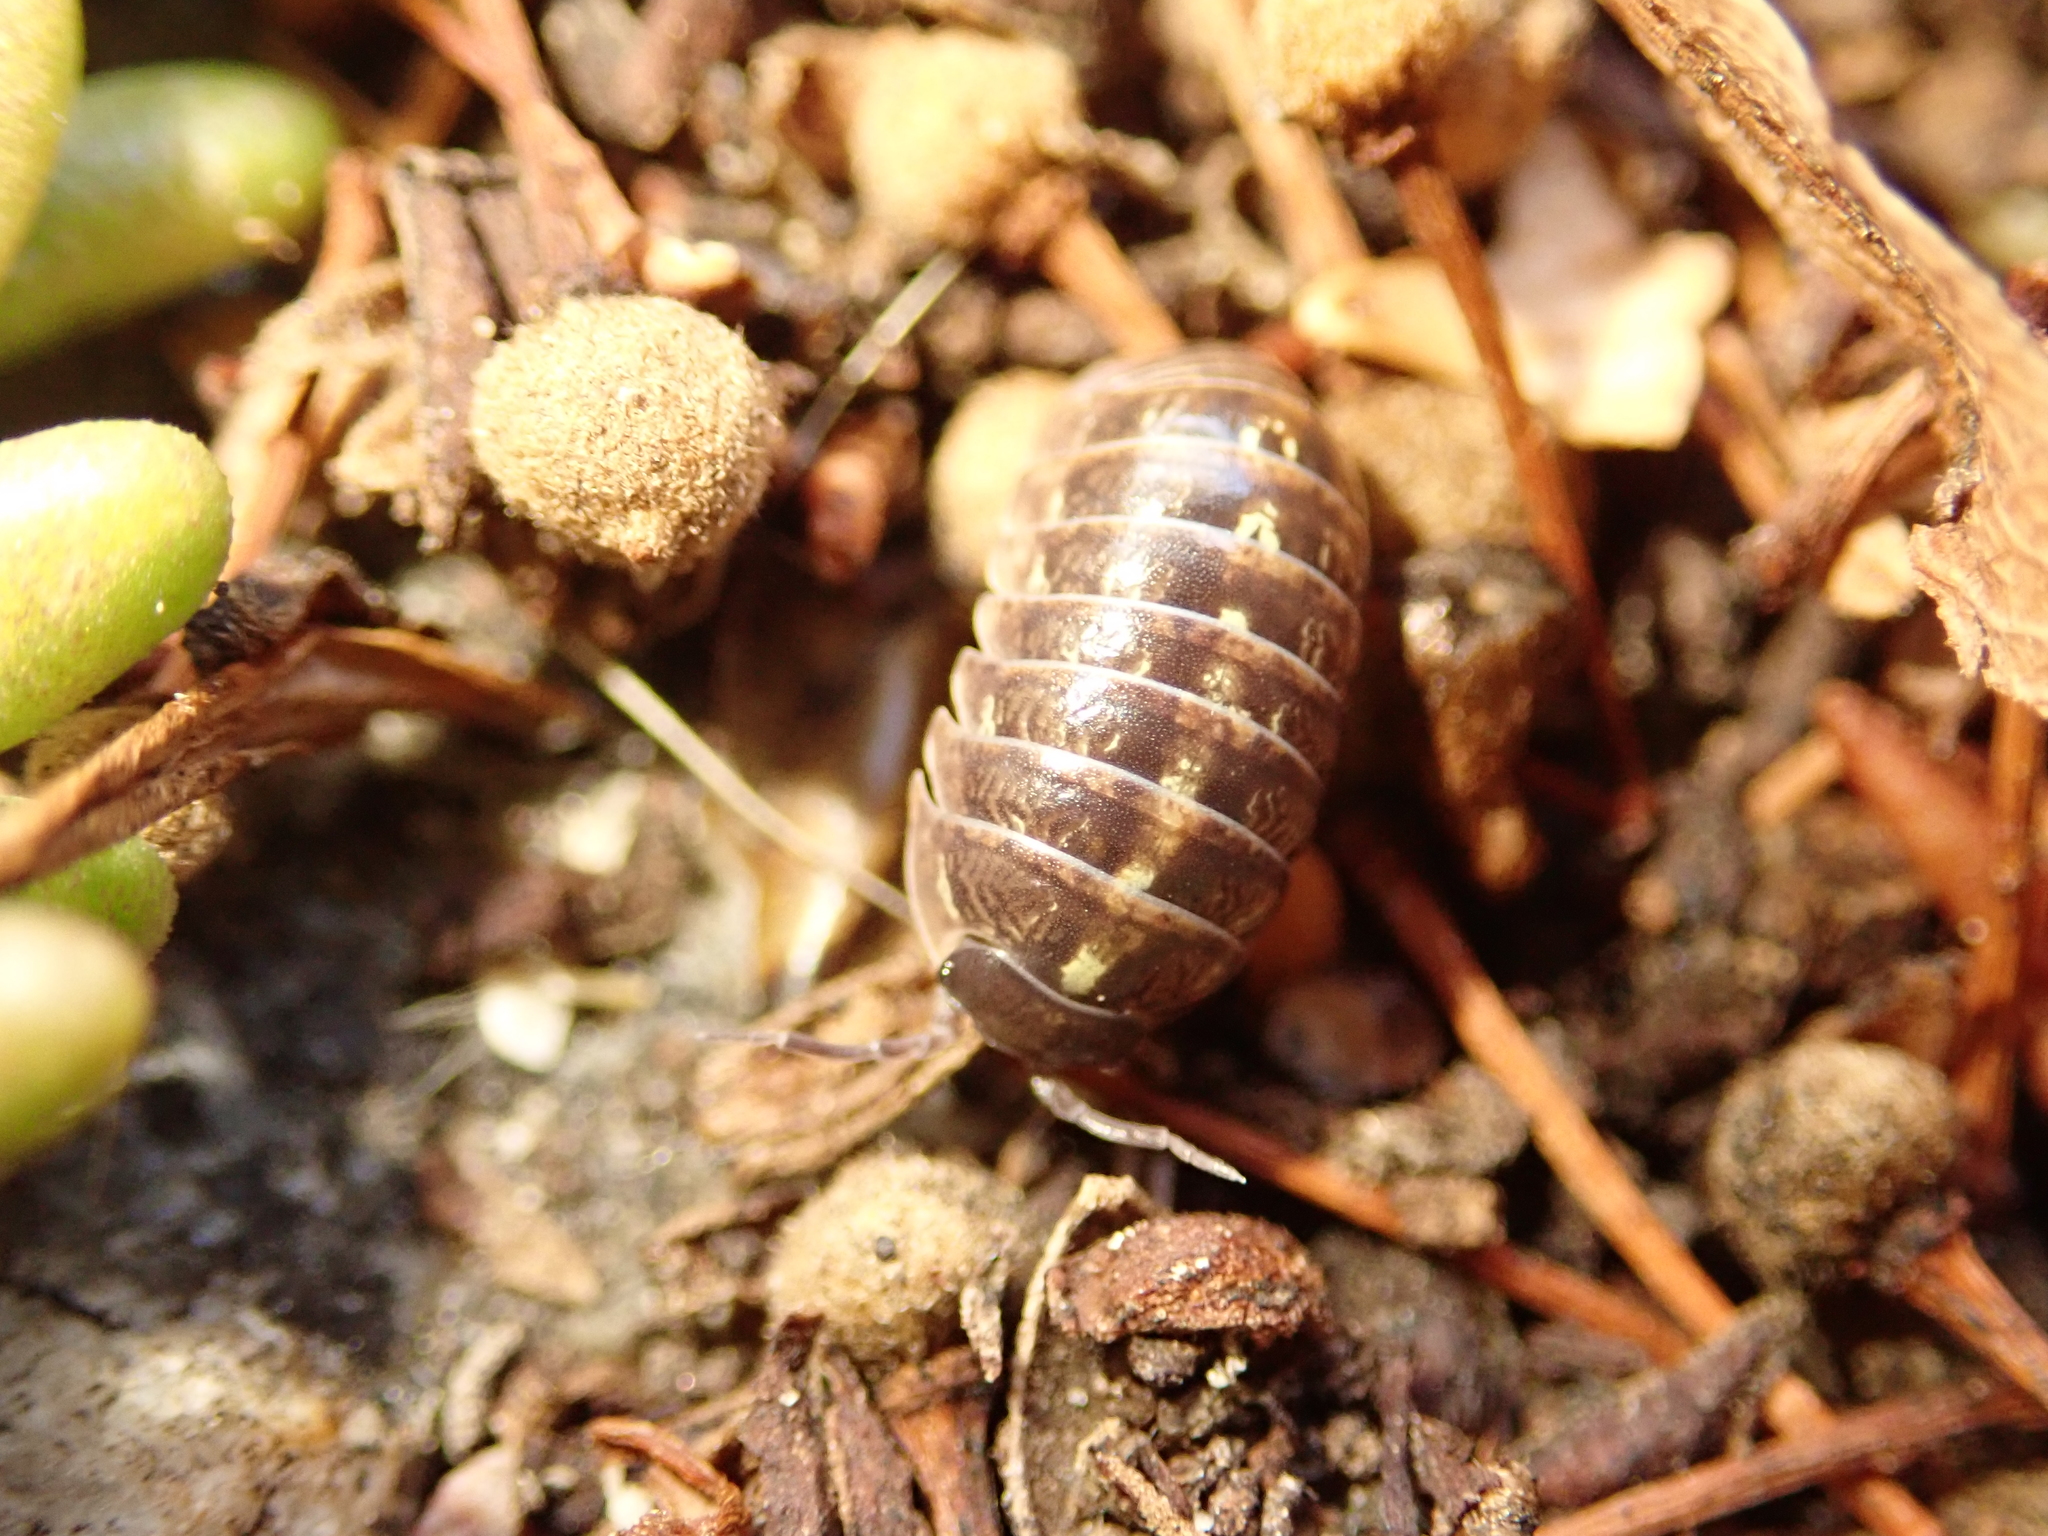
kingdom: Animalia
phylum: Arthropoda
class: Malacostraca
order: Isopoda
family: Armadillidiidae
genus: Armadillidium
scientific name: Armadillidium vulgare
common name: Common pill woodlouse
